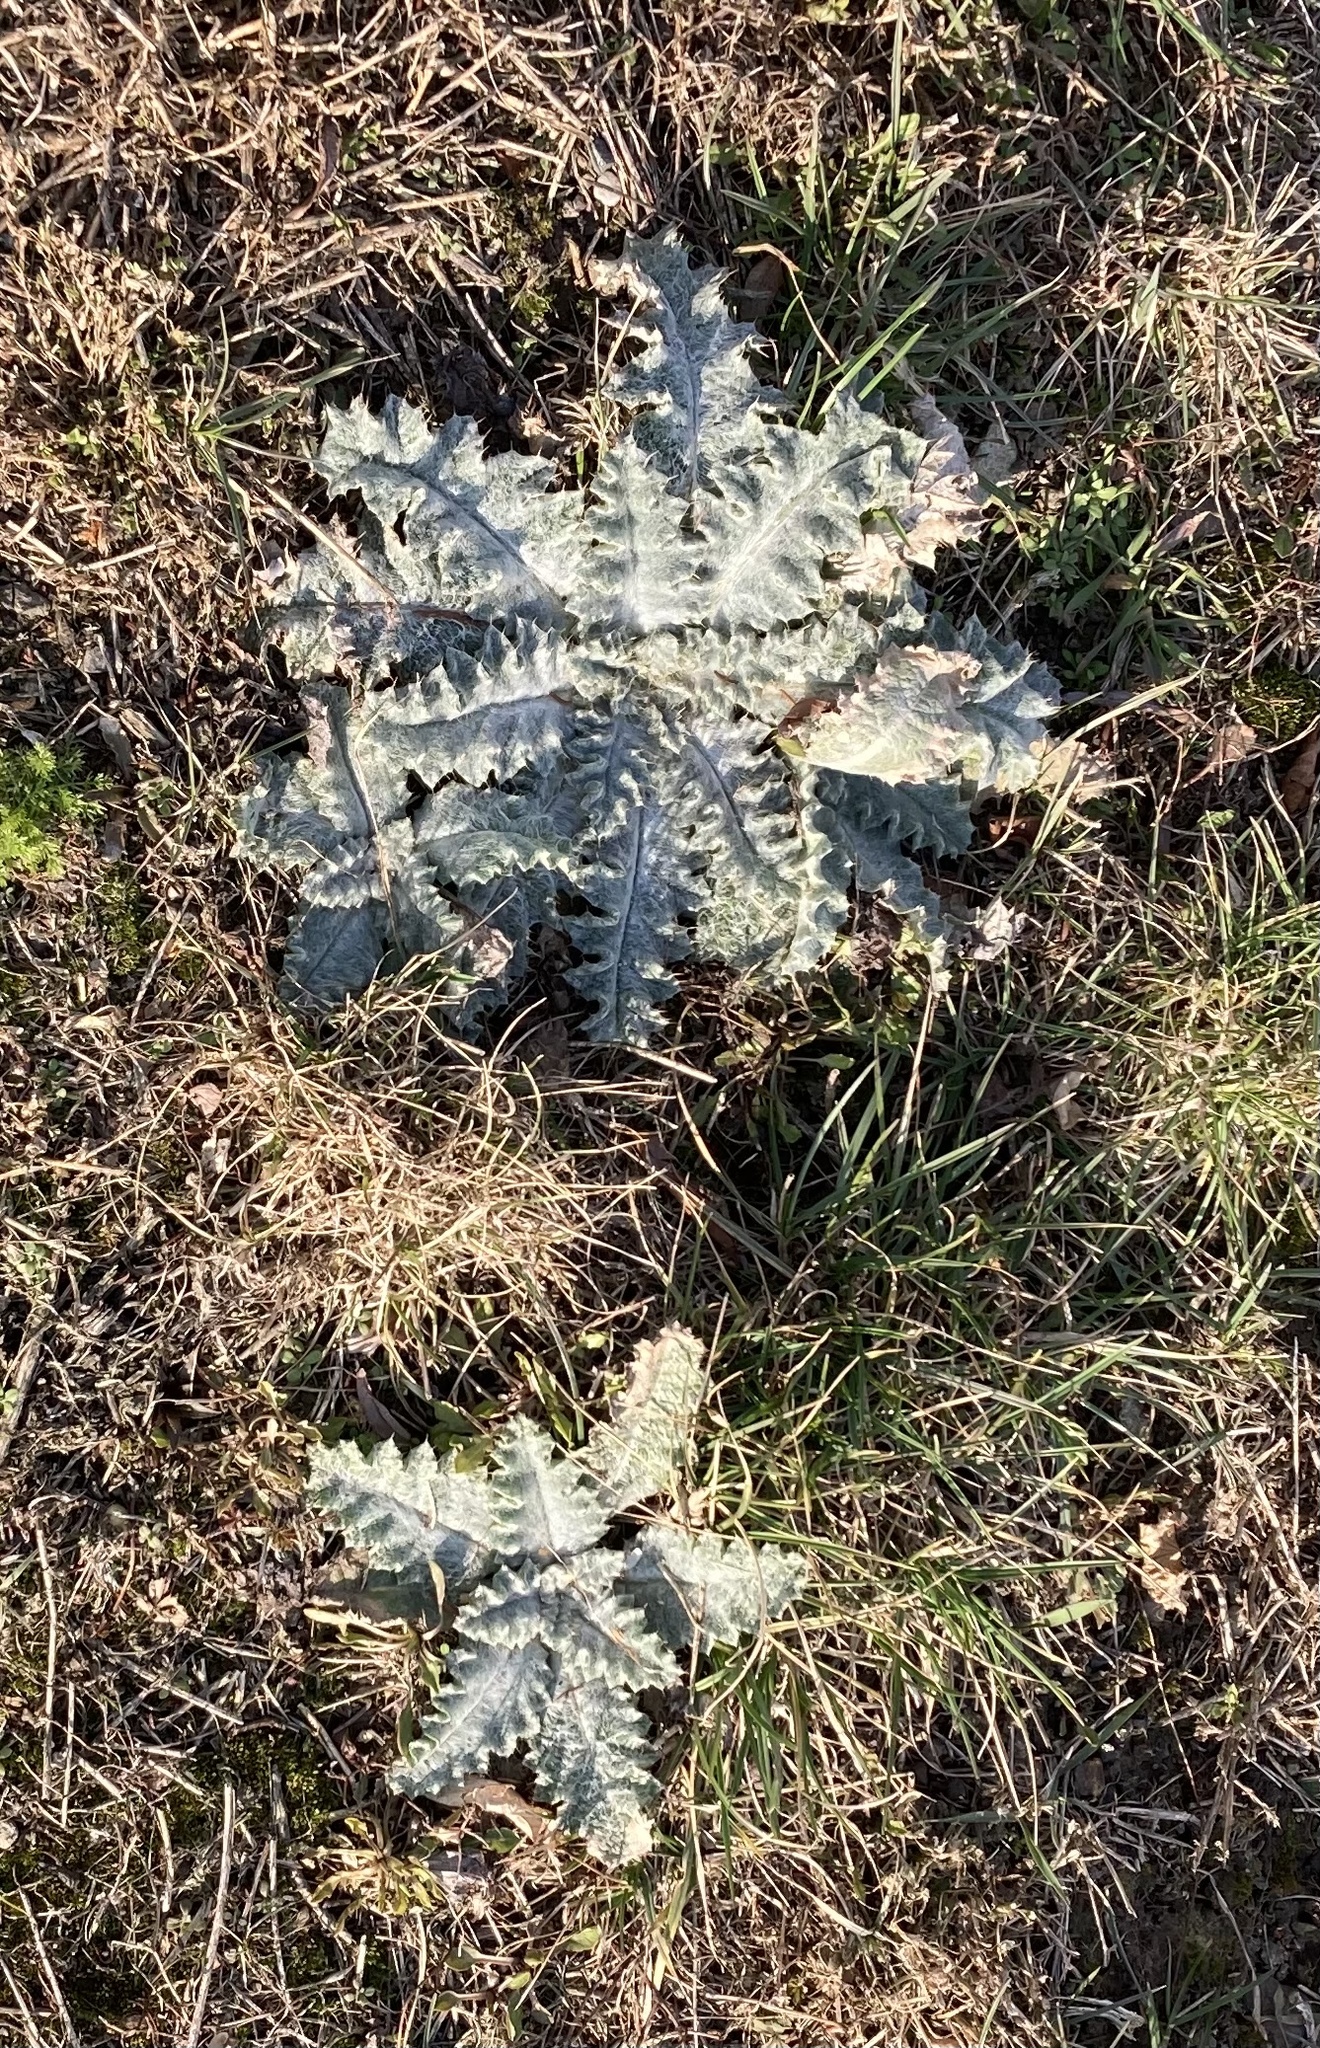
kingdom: Plantae
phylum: Tracheophyta
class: Magnoliopsida
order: Asterales
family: Asteraceae
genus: Onopordum
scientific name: Onopordum acanthium
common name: Scotch thistle
